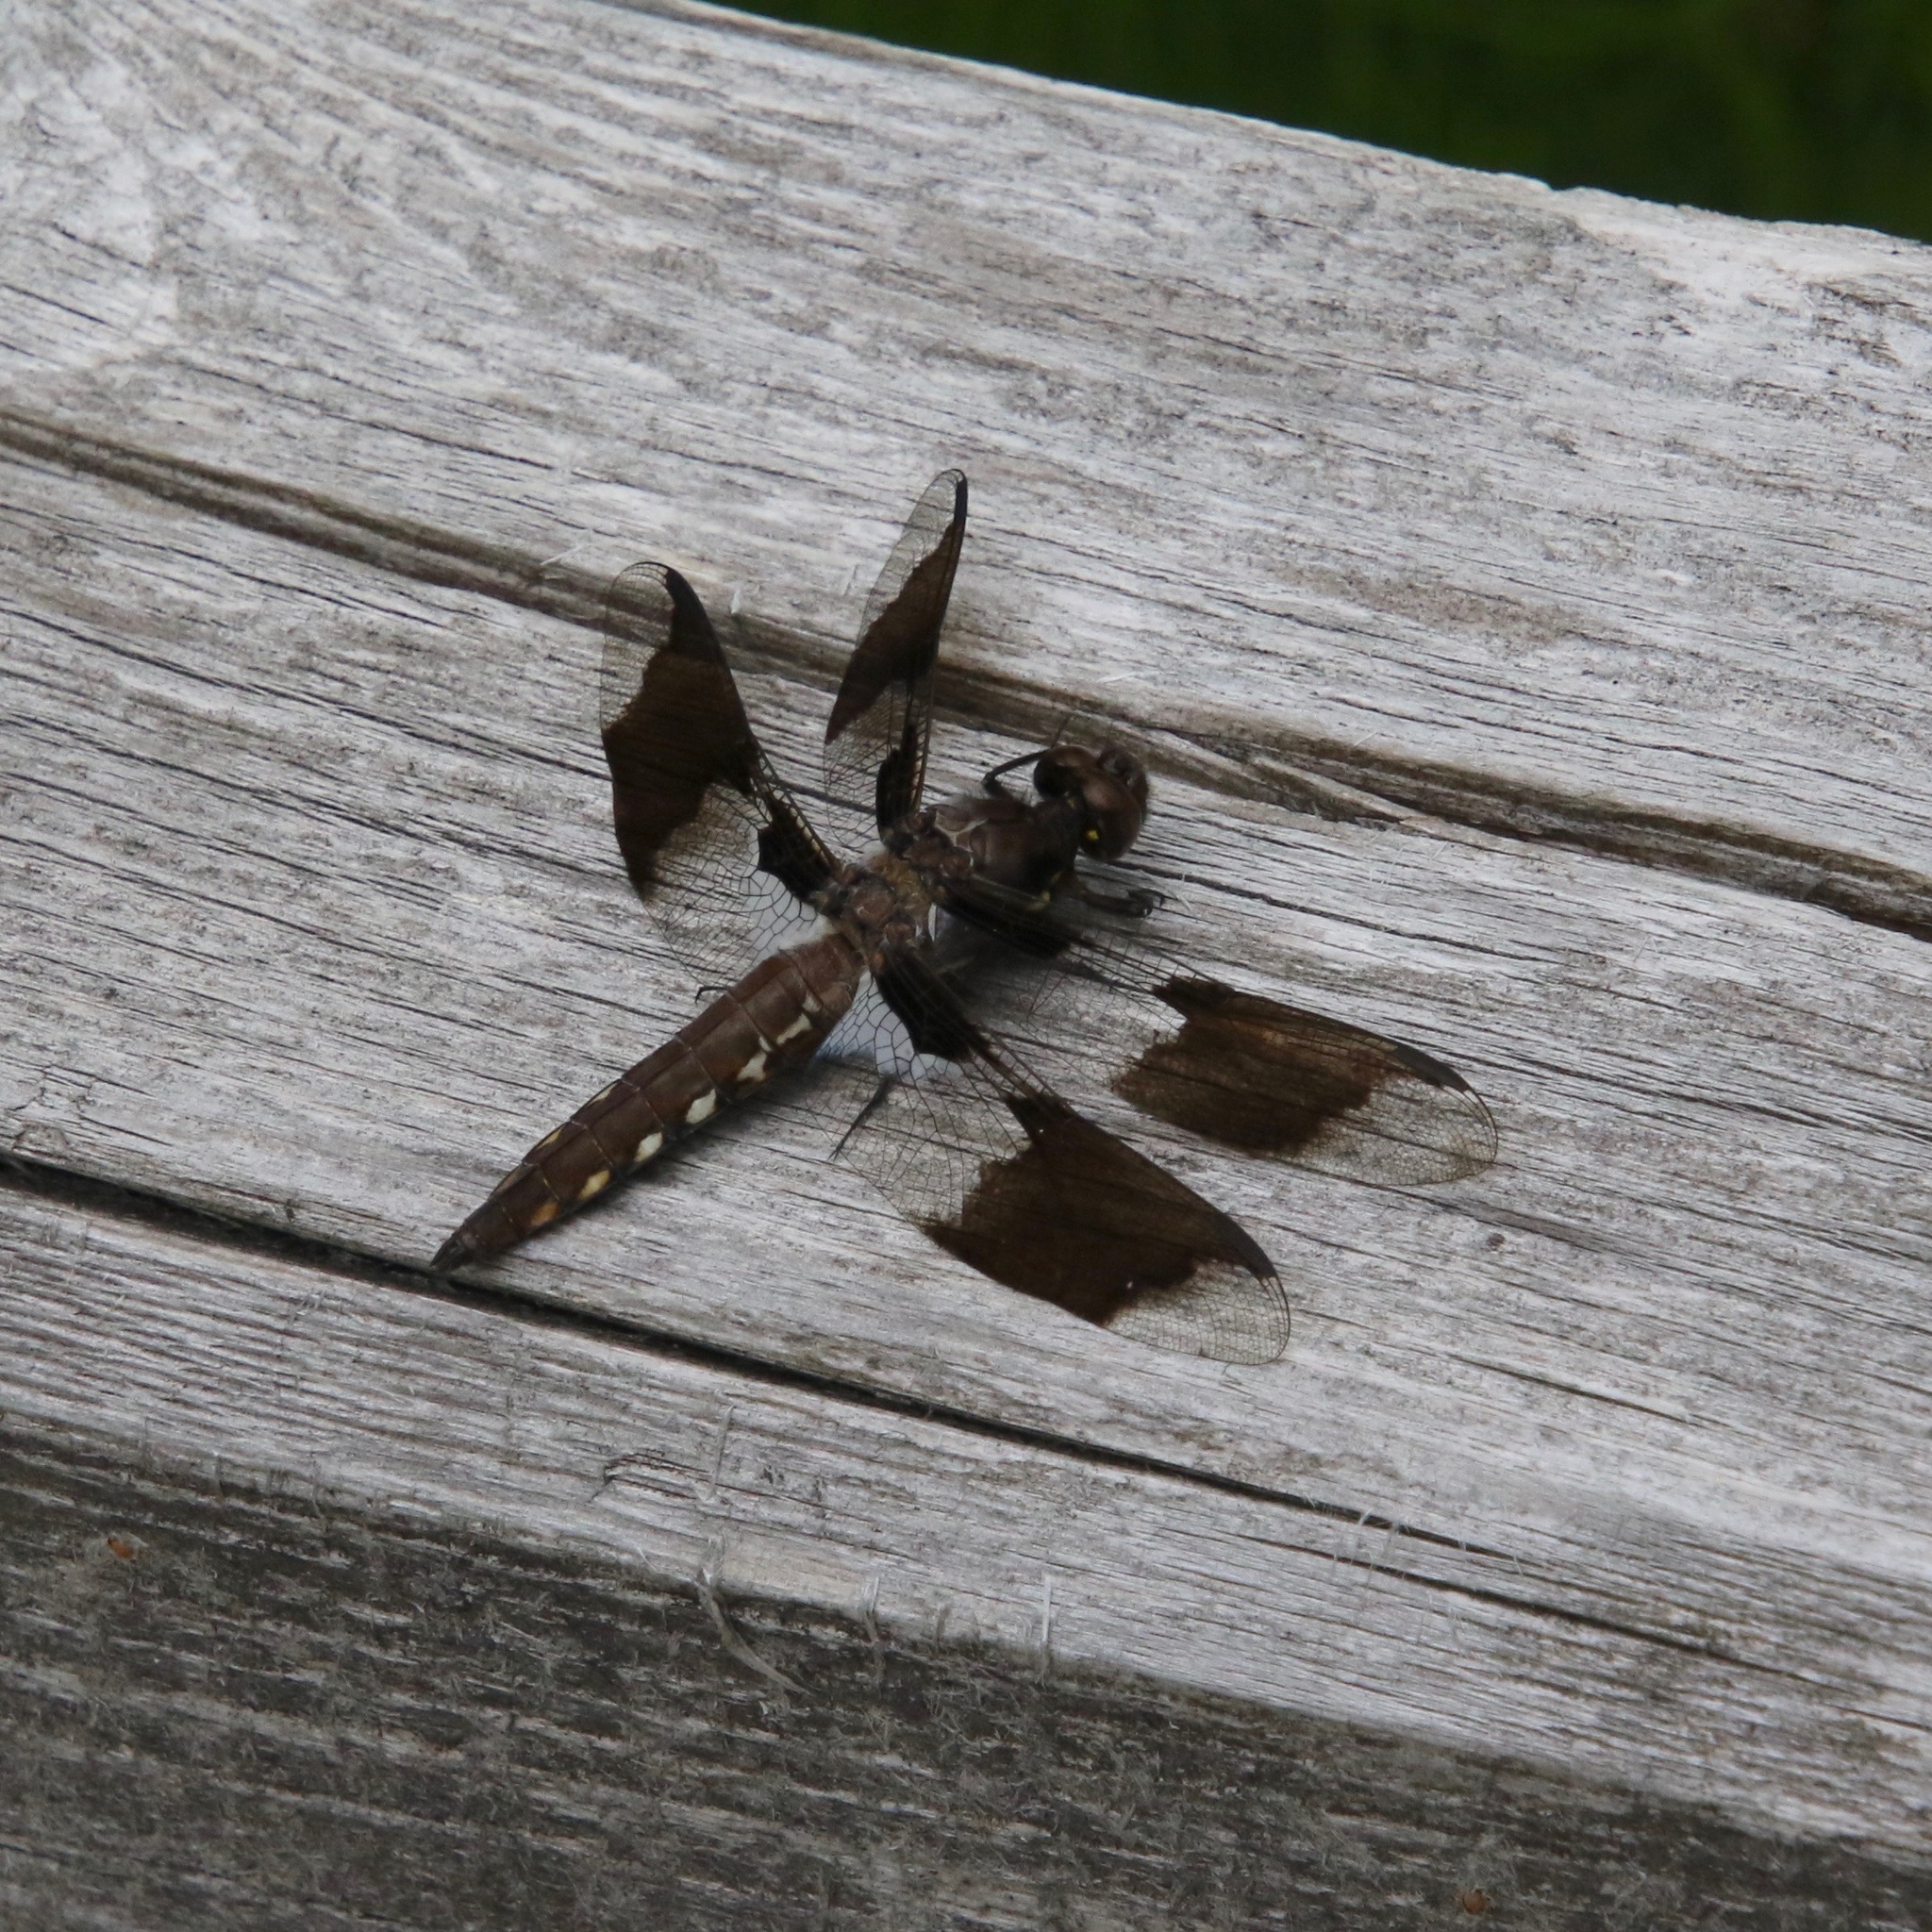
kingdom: Animalia
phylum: Arthropoda
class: Insecta
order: Odonata
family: Libellulidae
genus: Plathemis
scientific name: Plathemis lydia
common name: Common whitetail
